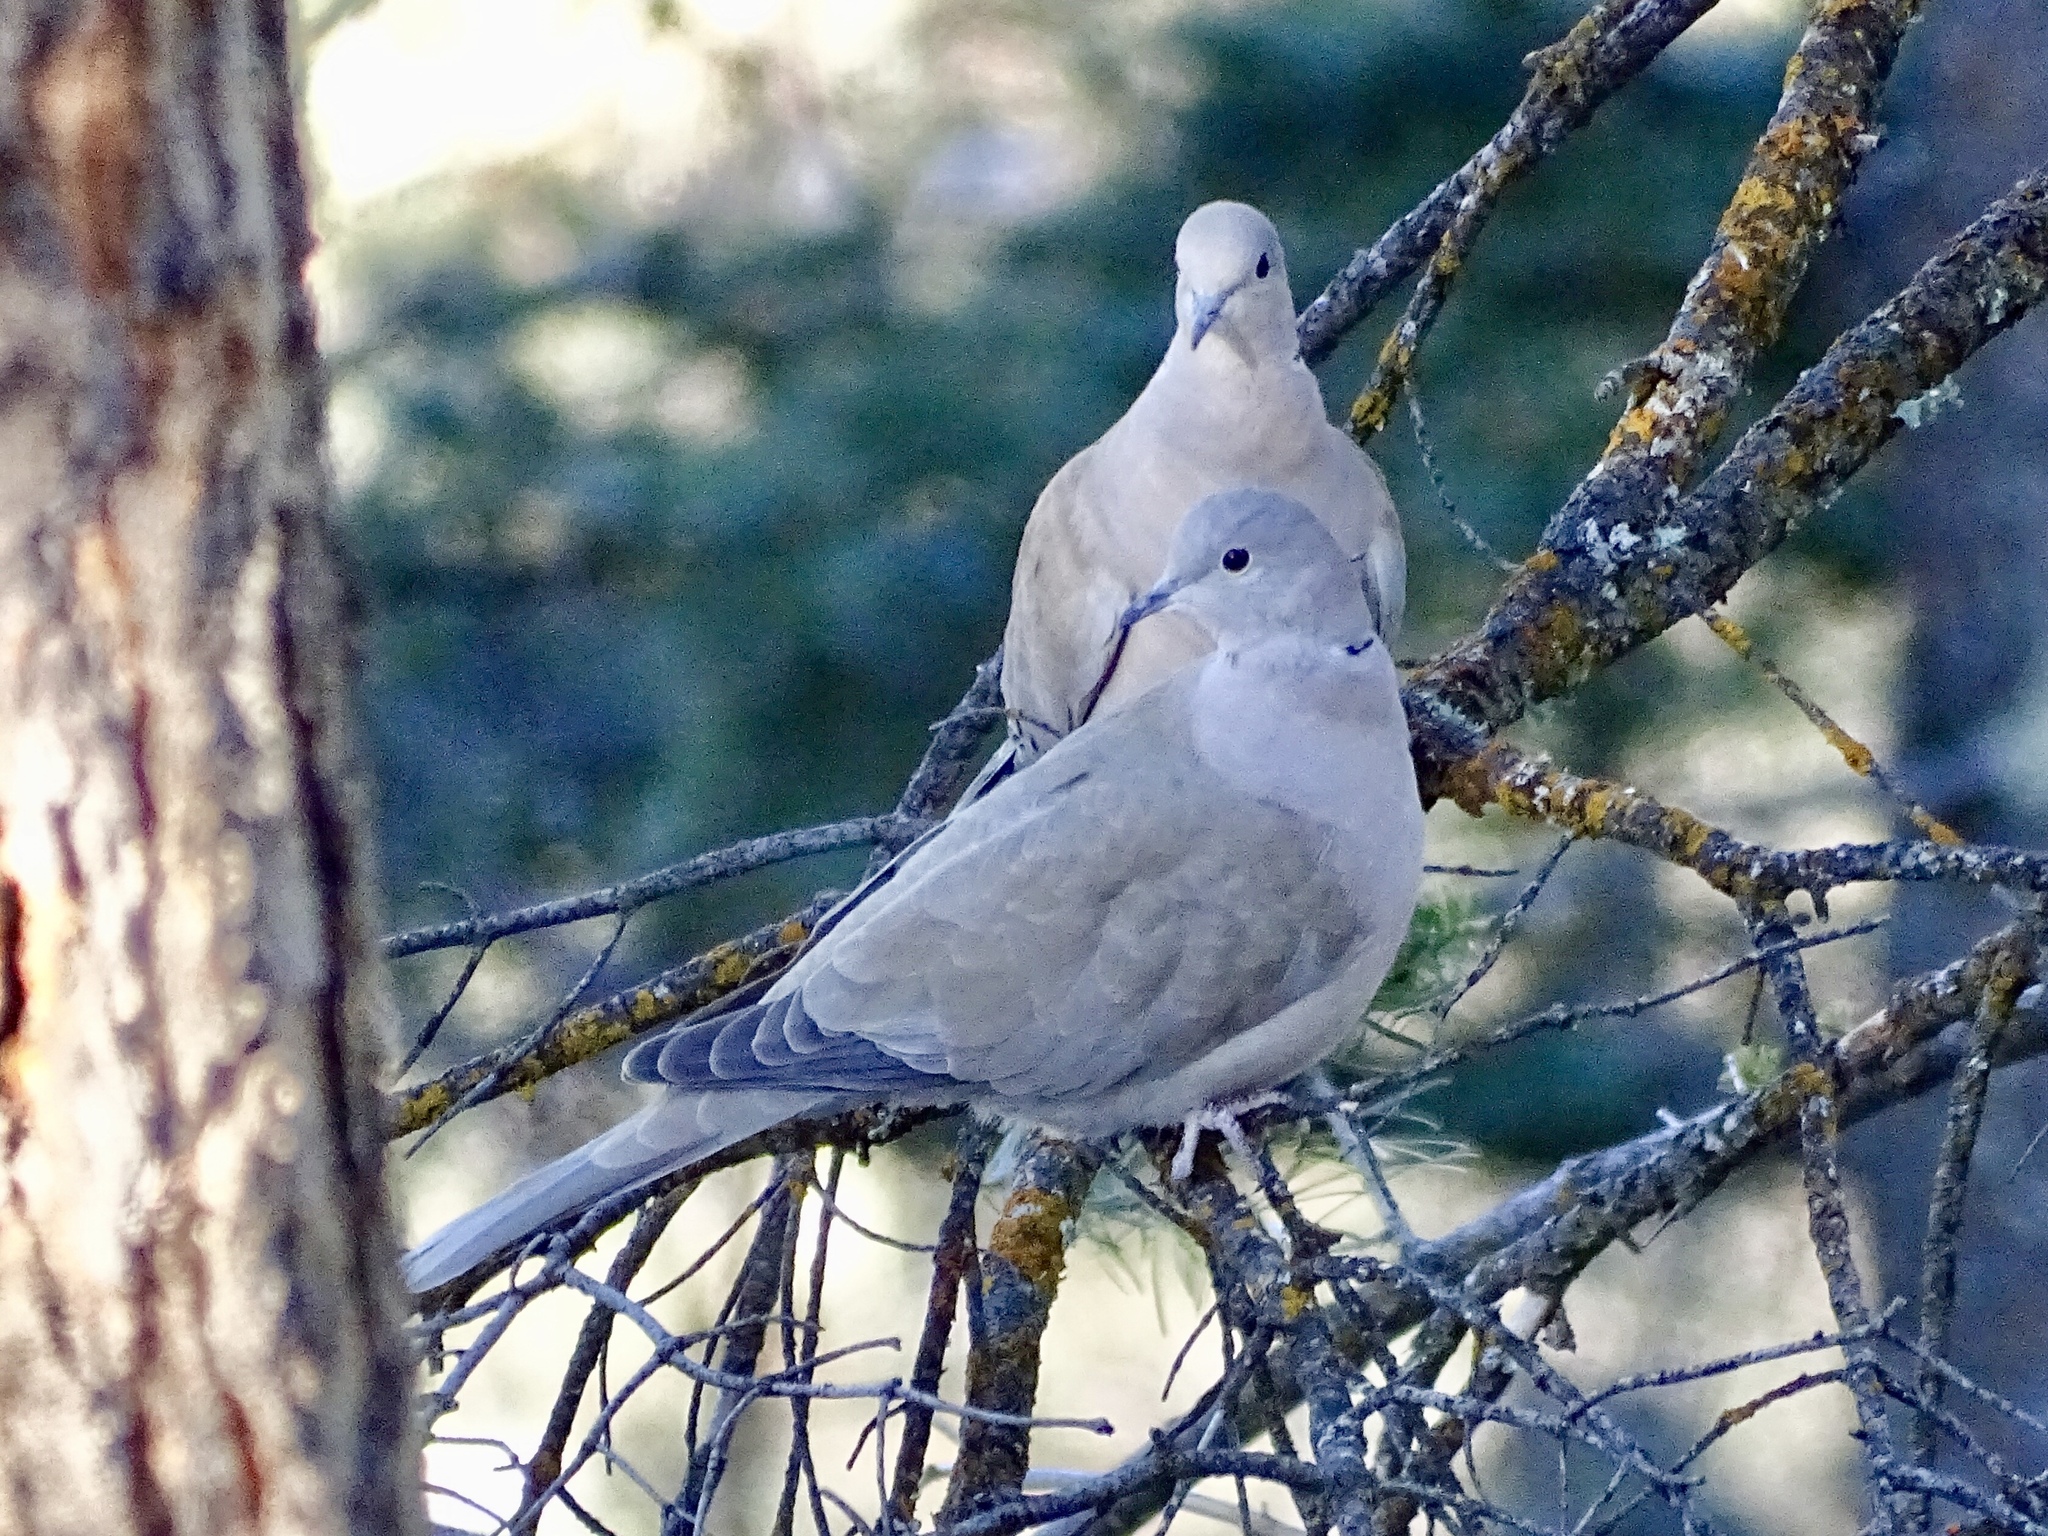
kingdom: Animalia
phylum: Chordata
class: Aves
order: Columbiformes
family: Columbidae
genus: Streptopelia
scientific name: Streptopelia decaocto
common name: Eurasian collared dove
